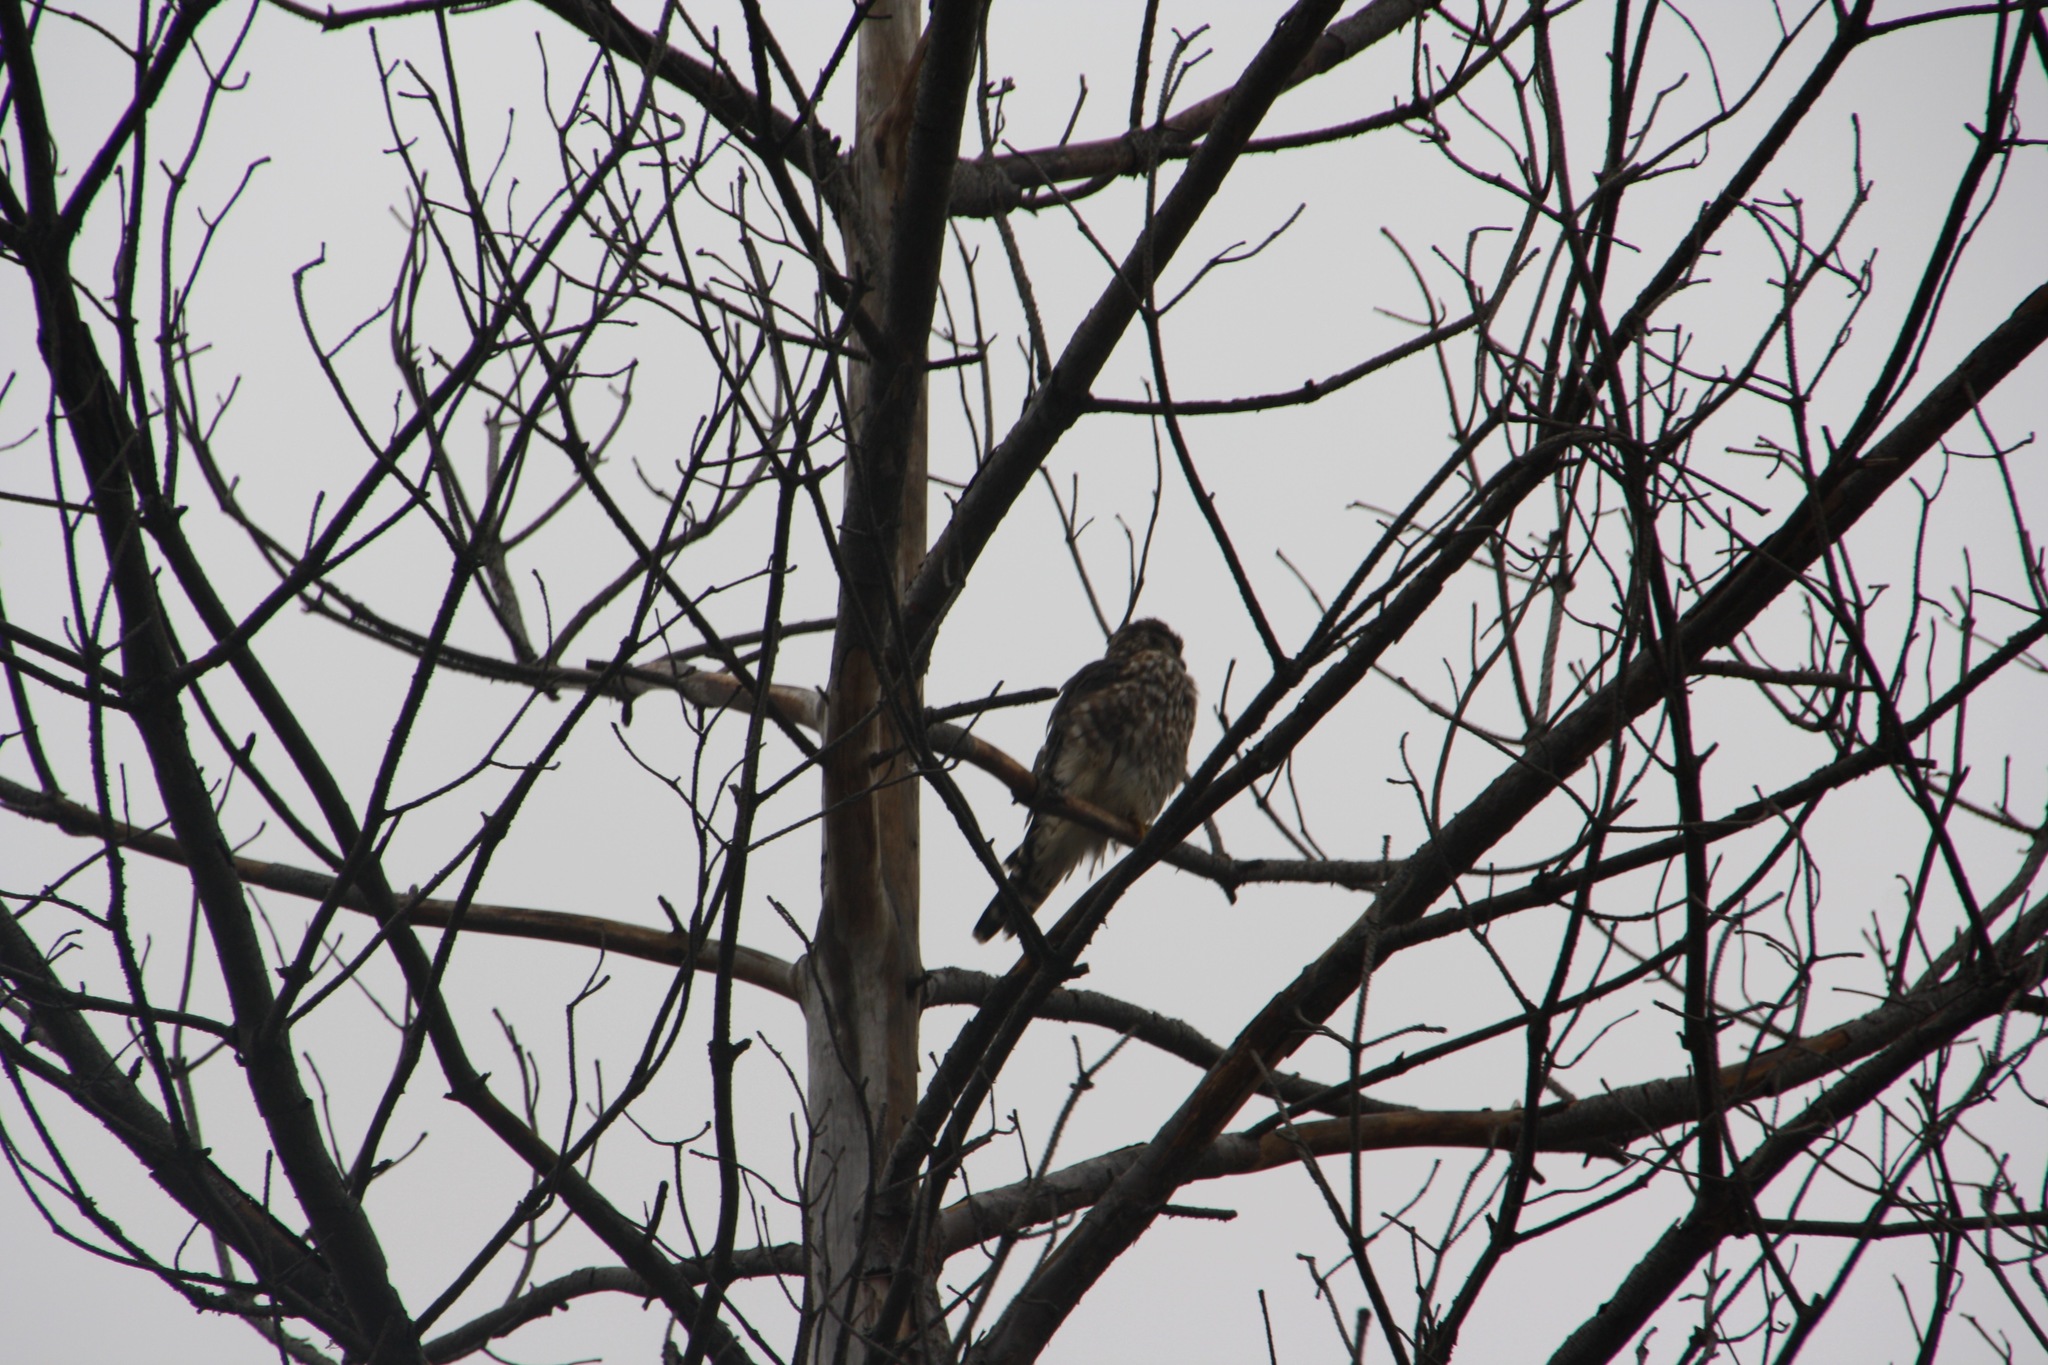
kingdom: Animalia
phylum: Chordata
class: Aves
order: Falconiformes
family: Falconidae
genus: Falco
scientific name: Falco columbarius
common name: Merlin
